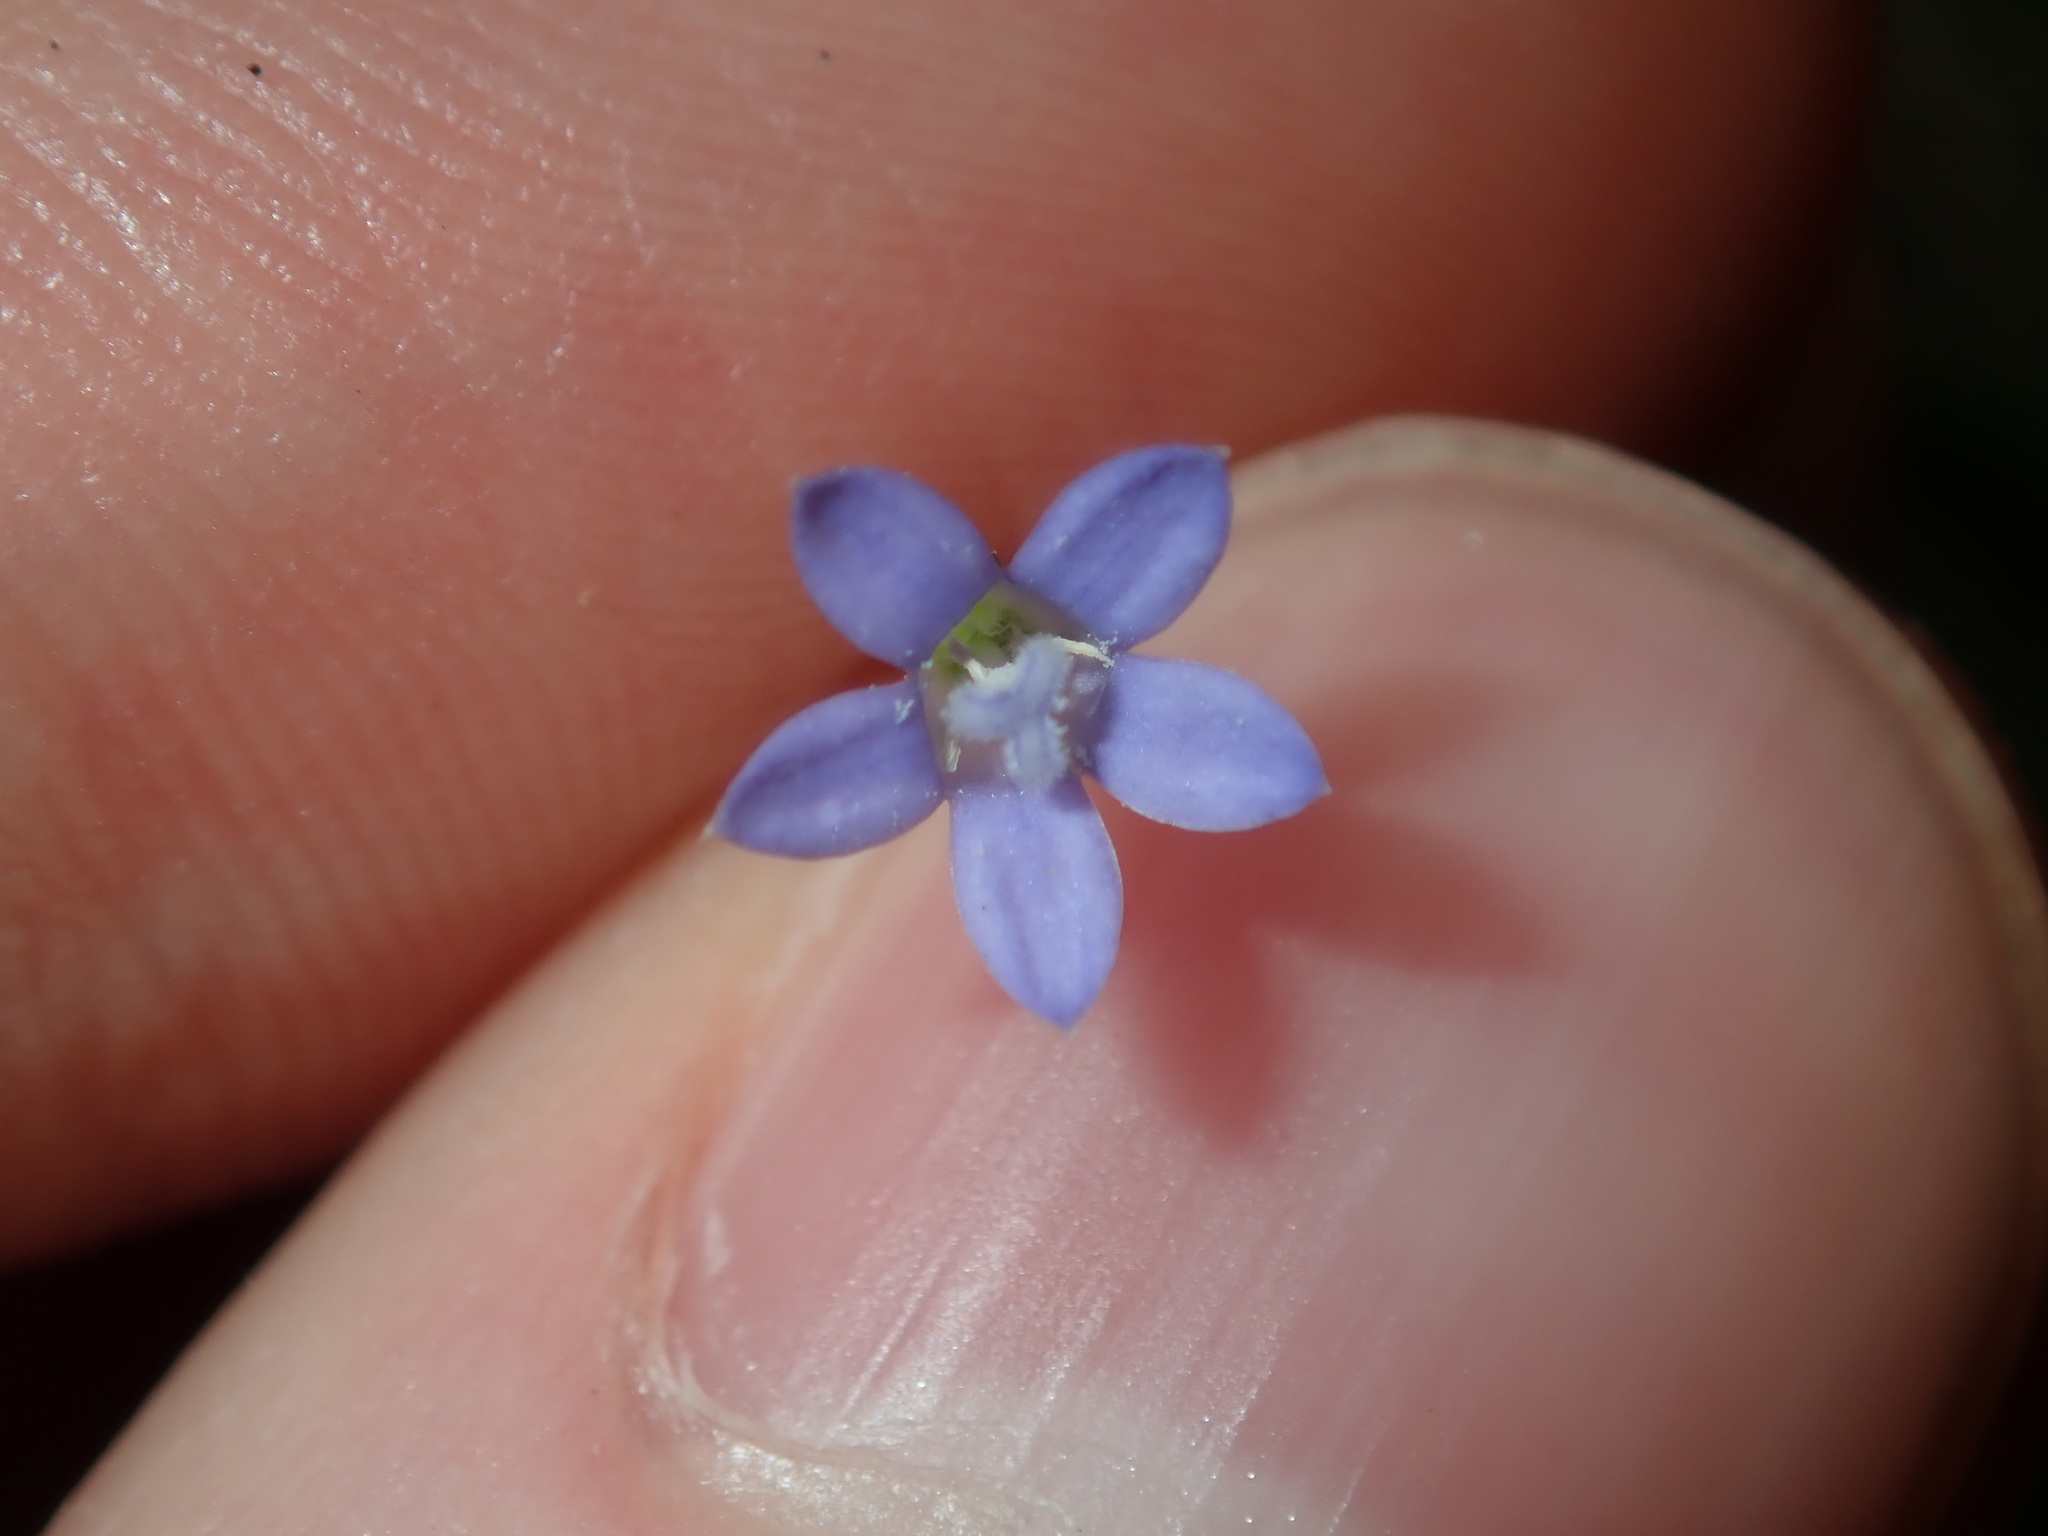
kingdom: Plantae
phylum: Tracheophyta
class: Magnoliopsida
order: Asterales
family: Campanulaceae
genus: Wahlenbergia
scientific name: Wahlenbergia gracilis
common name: Harebell
